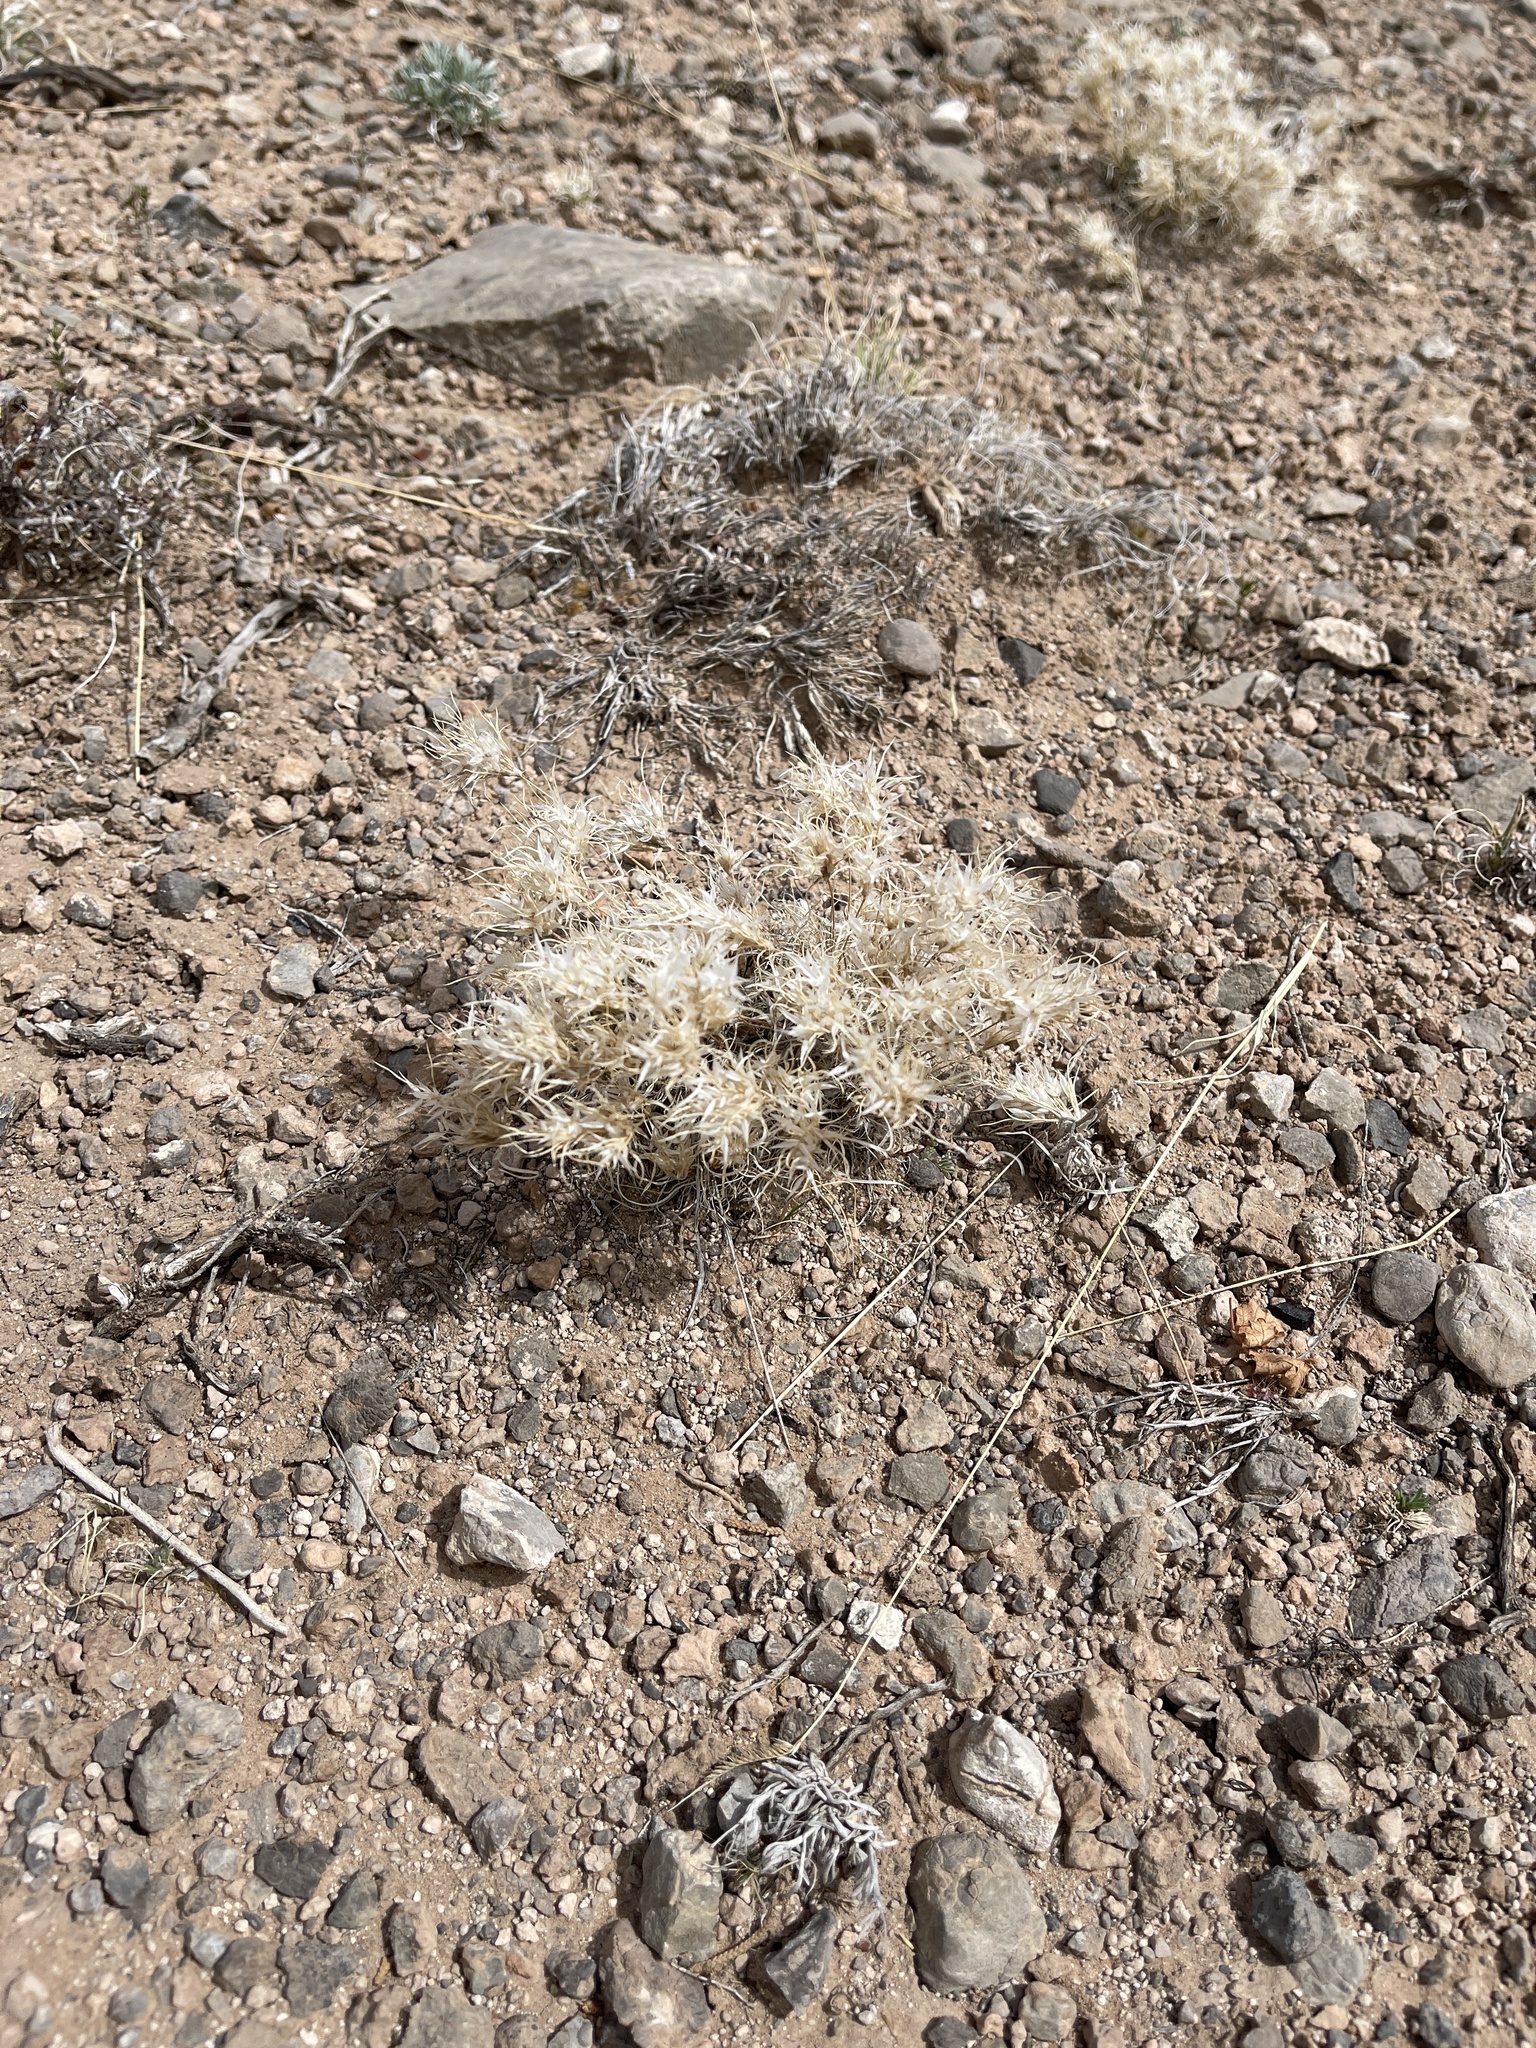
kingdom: Plantae
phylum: Tracheophyta
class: Liliopsida
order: Poales
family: Poaceae
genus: Dasyochloa
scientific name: Dasyochloa pulchella
